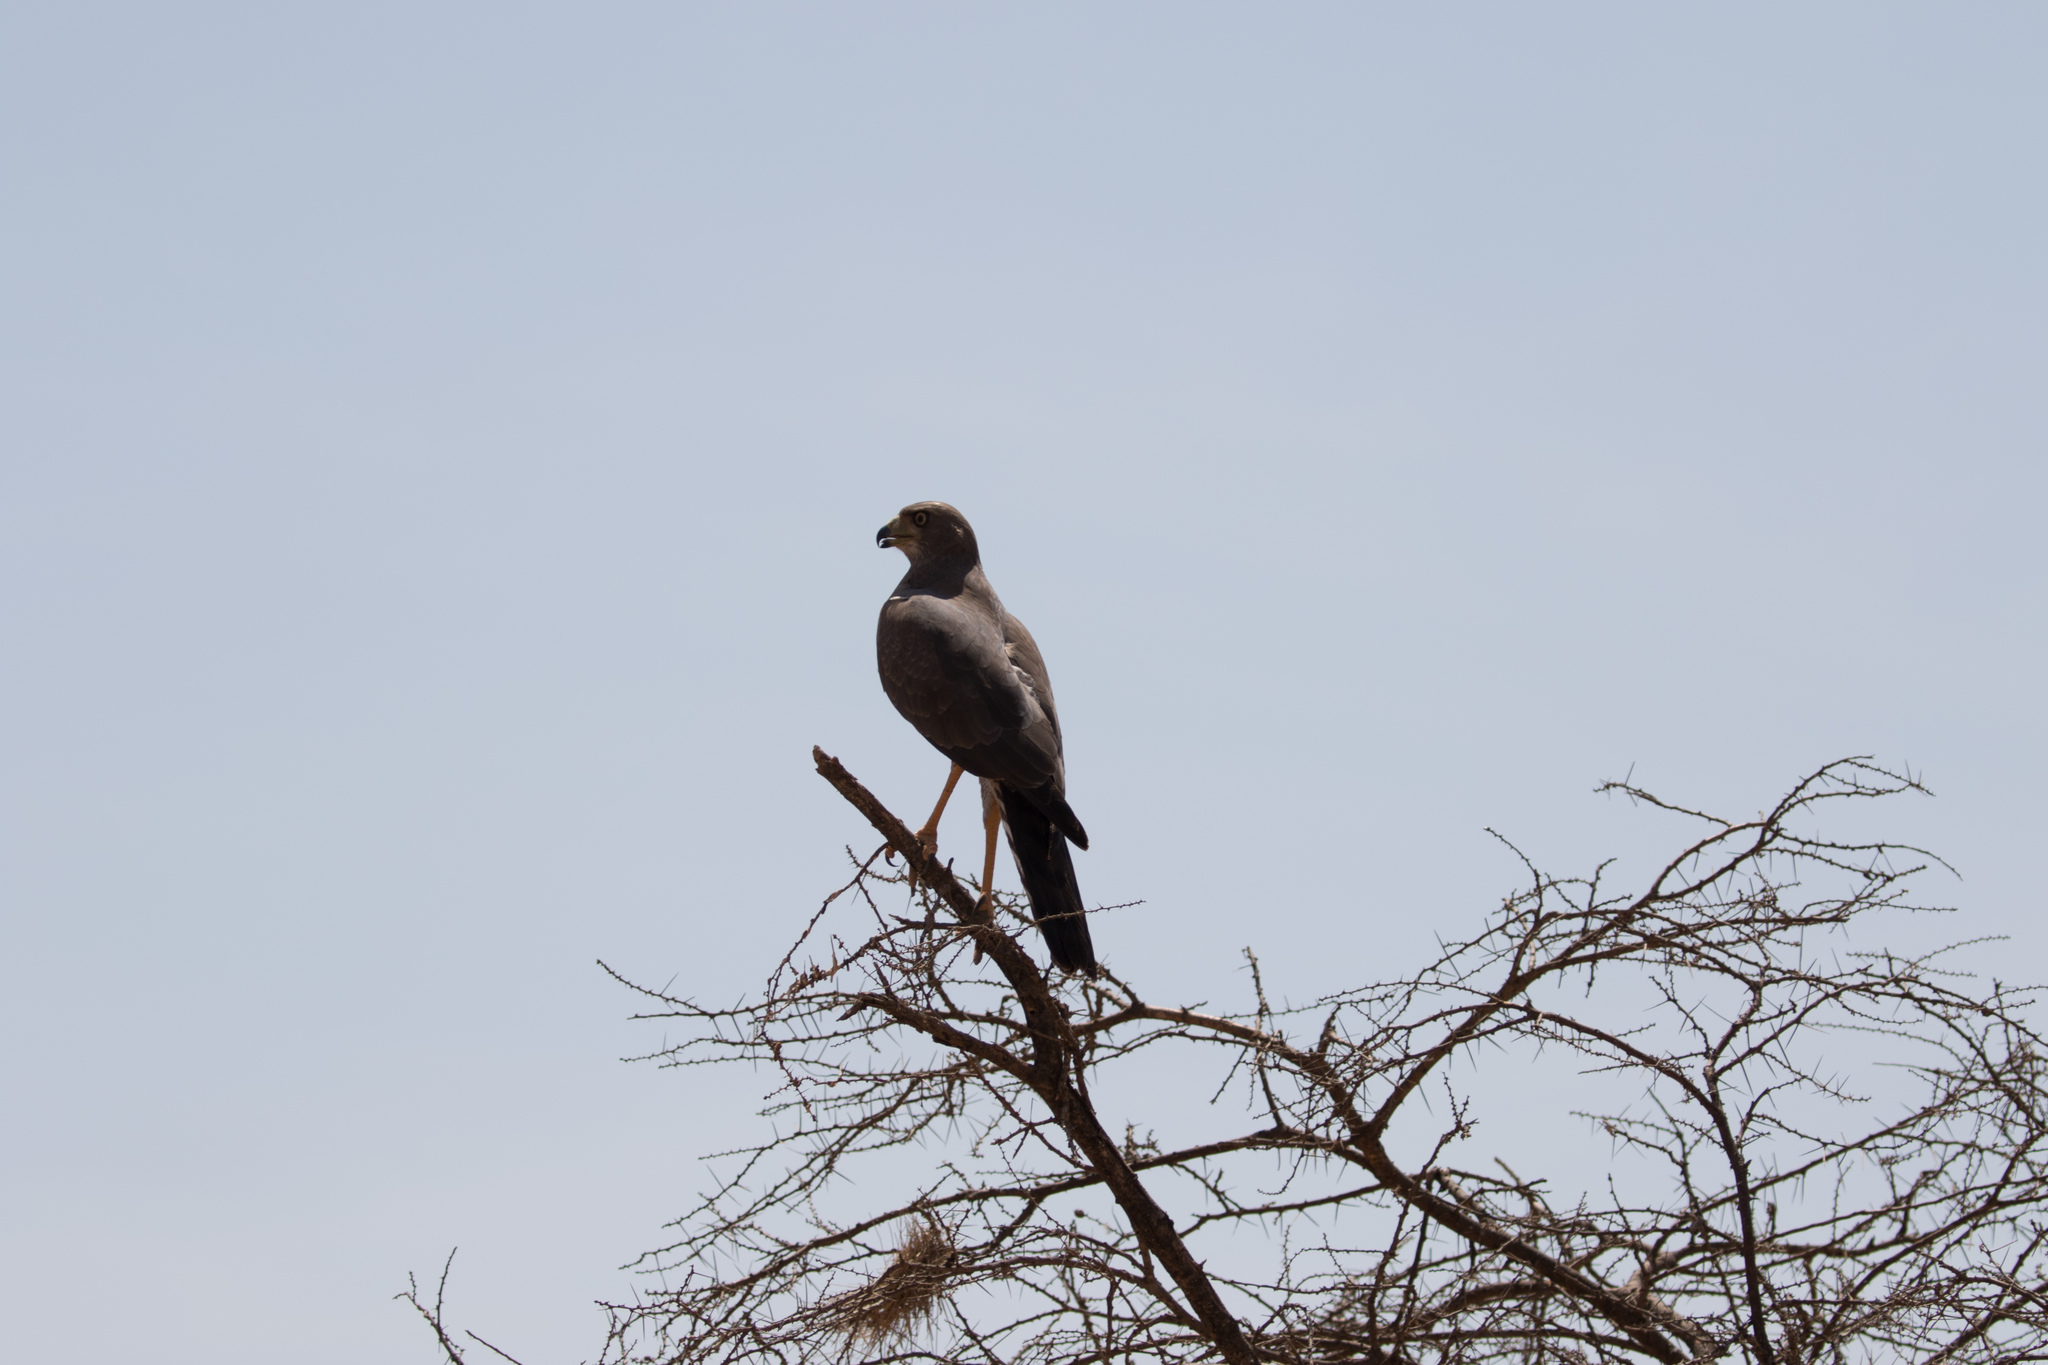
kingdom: Animalia
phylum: Chordata
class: Aves
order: Accipitriformes
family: Accipitridae
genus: Melierax
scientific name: Melierax poliopterus
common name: Eastern chanting goshawk
